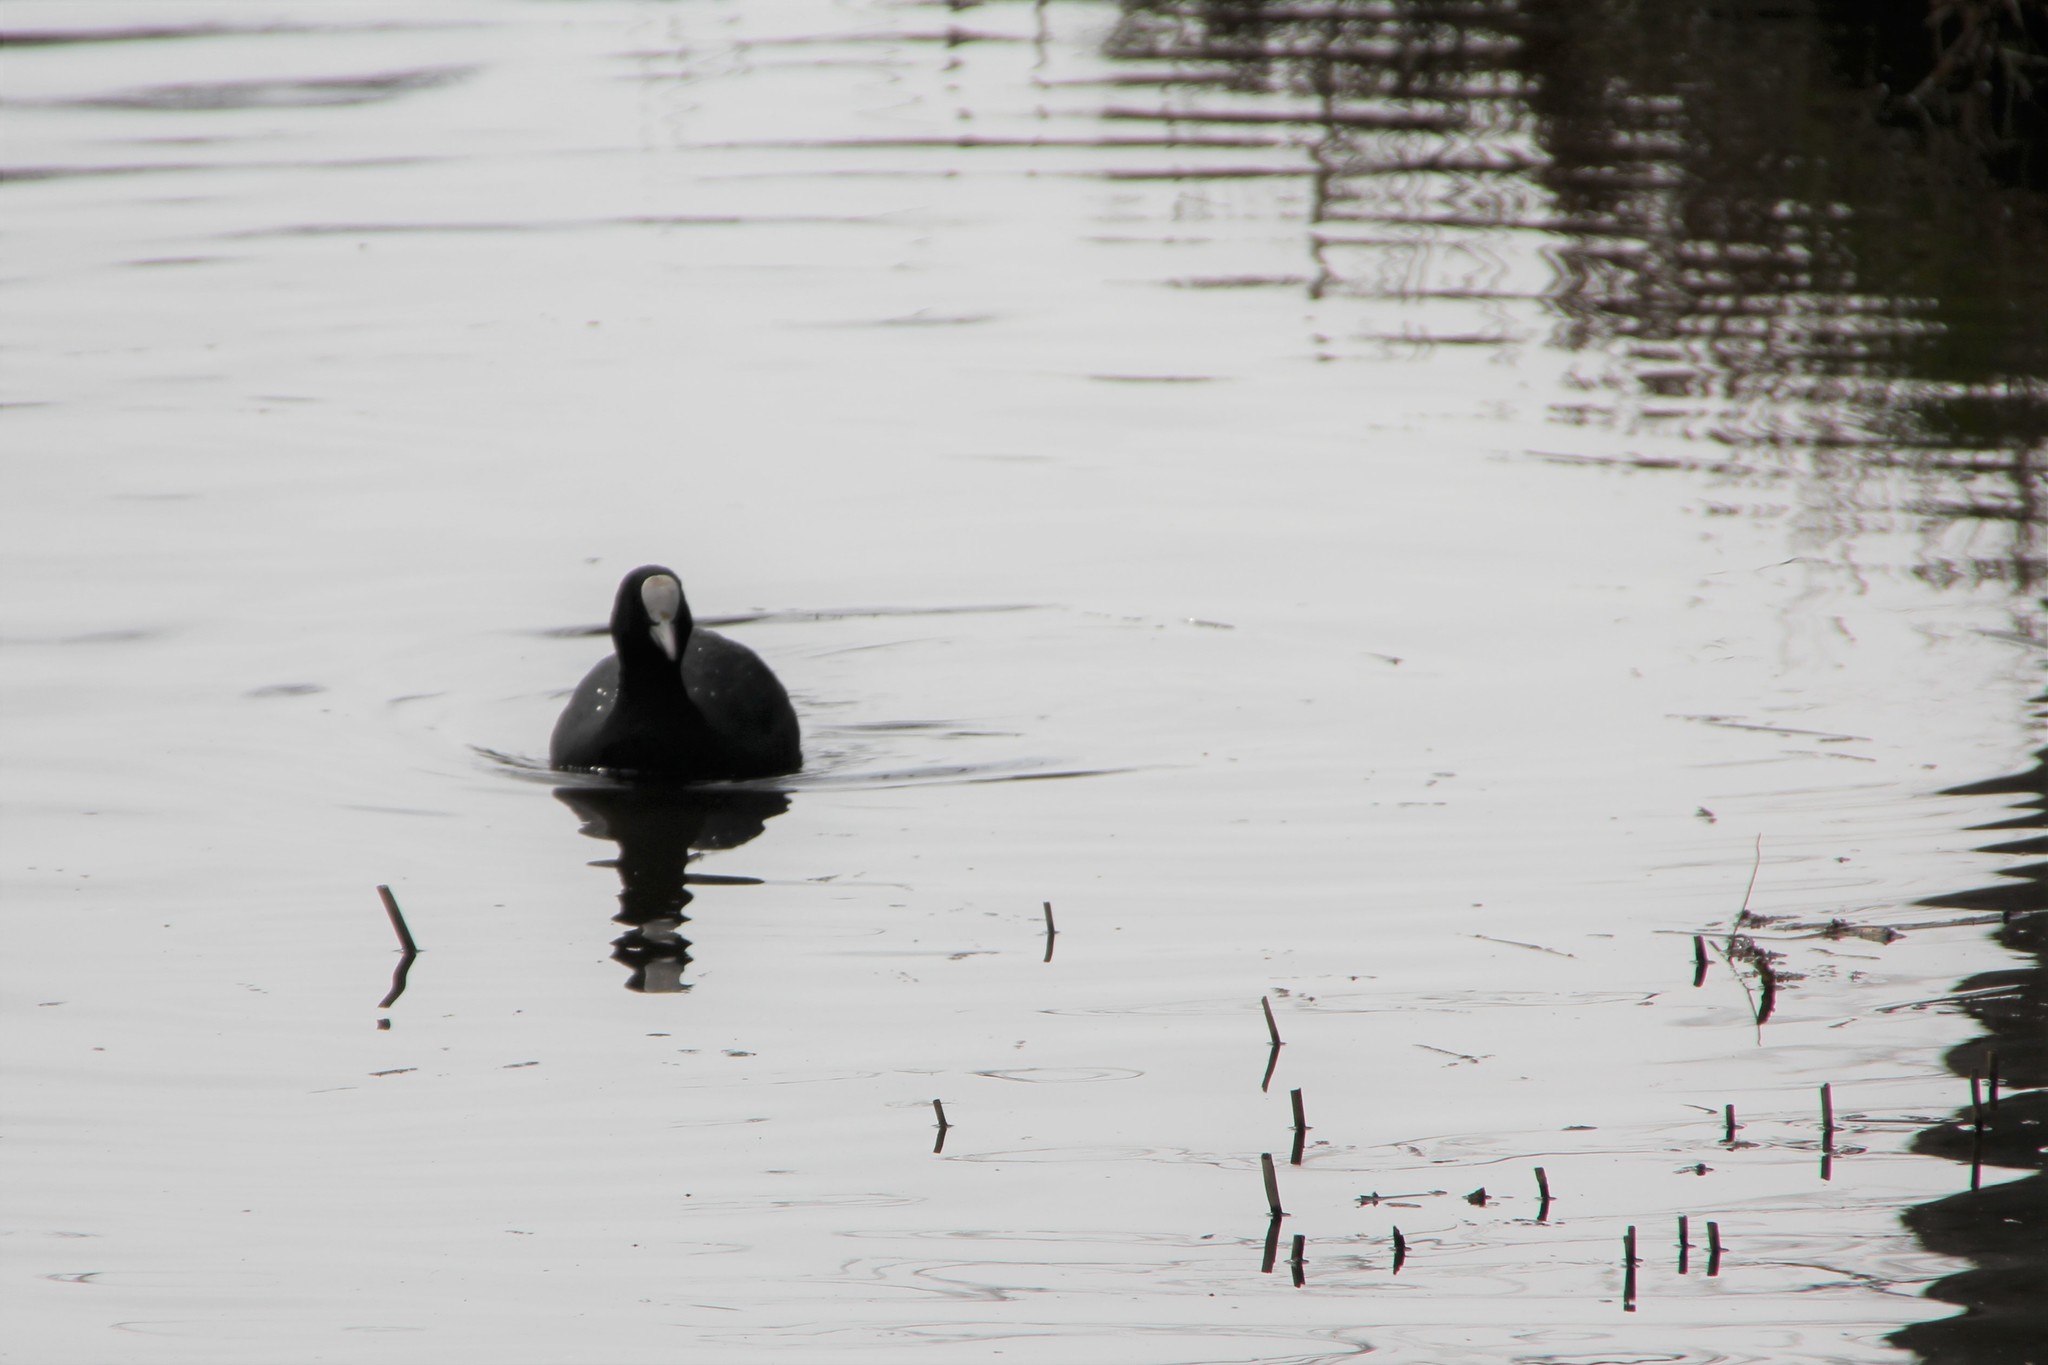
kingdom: Animalia
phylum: Chordata
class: Aves
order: Gruiformes
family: Rallidae
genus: Fulica
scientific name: Fulica atra
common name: Eurasian coot
